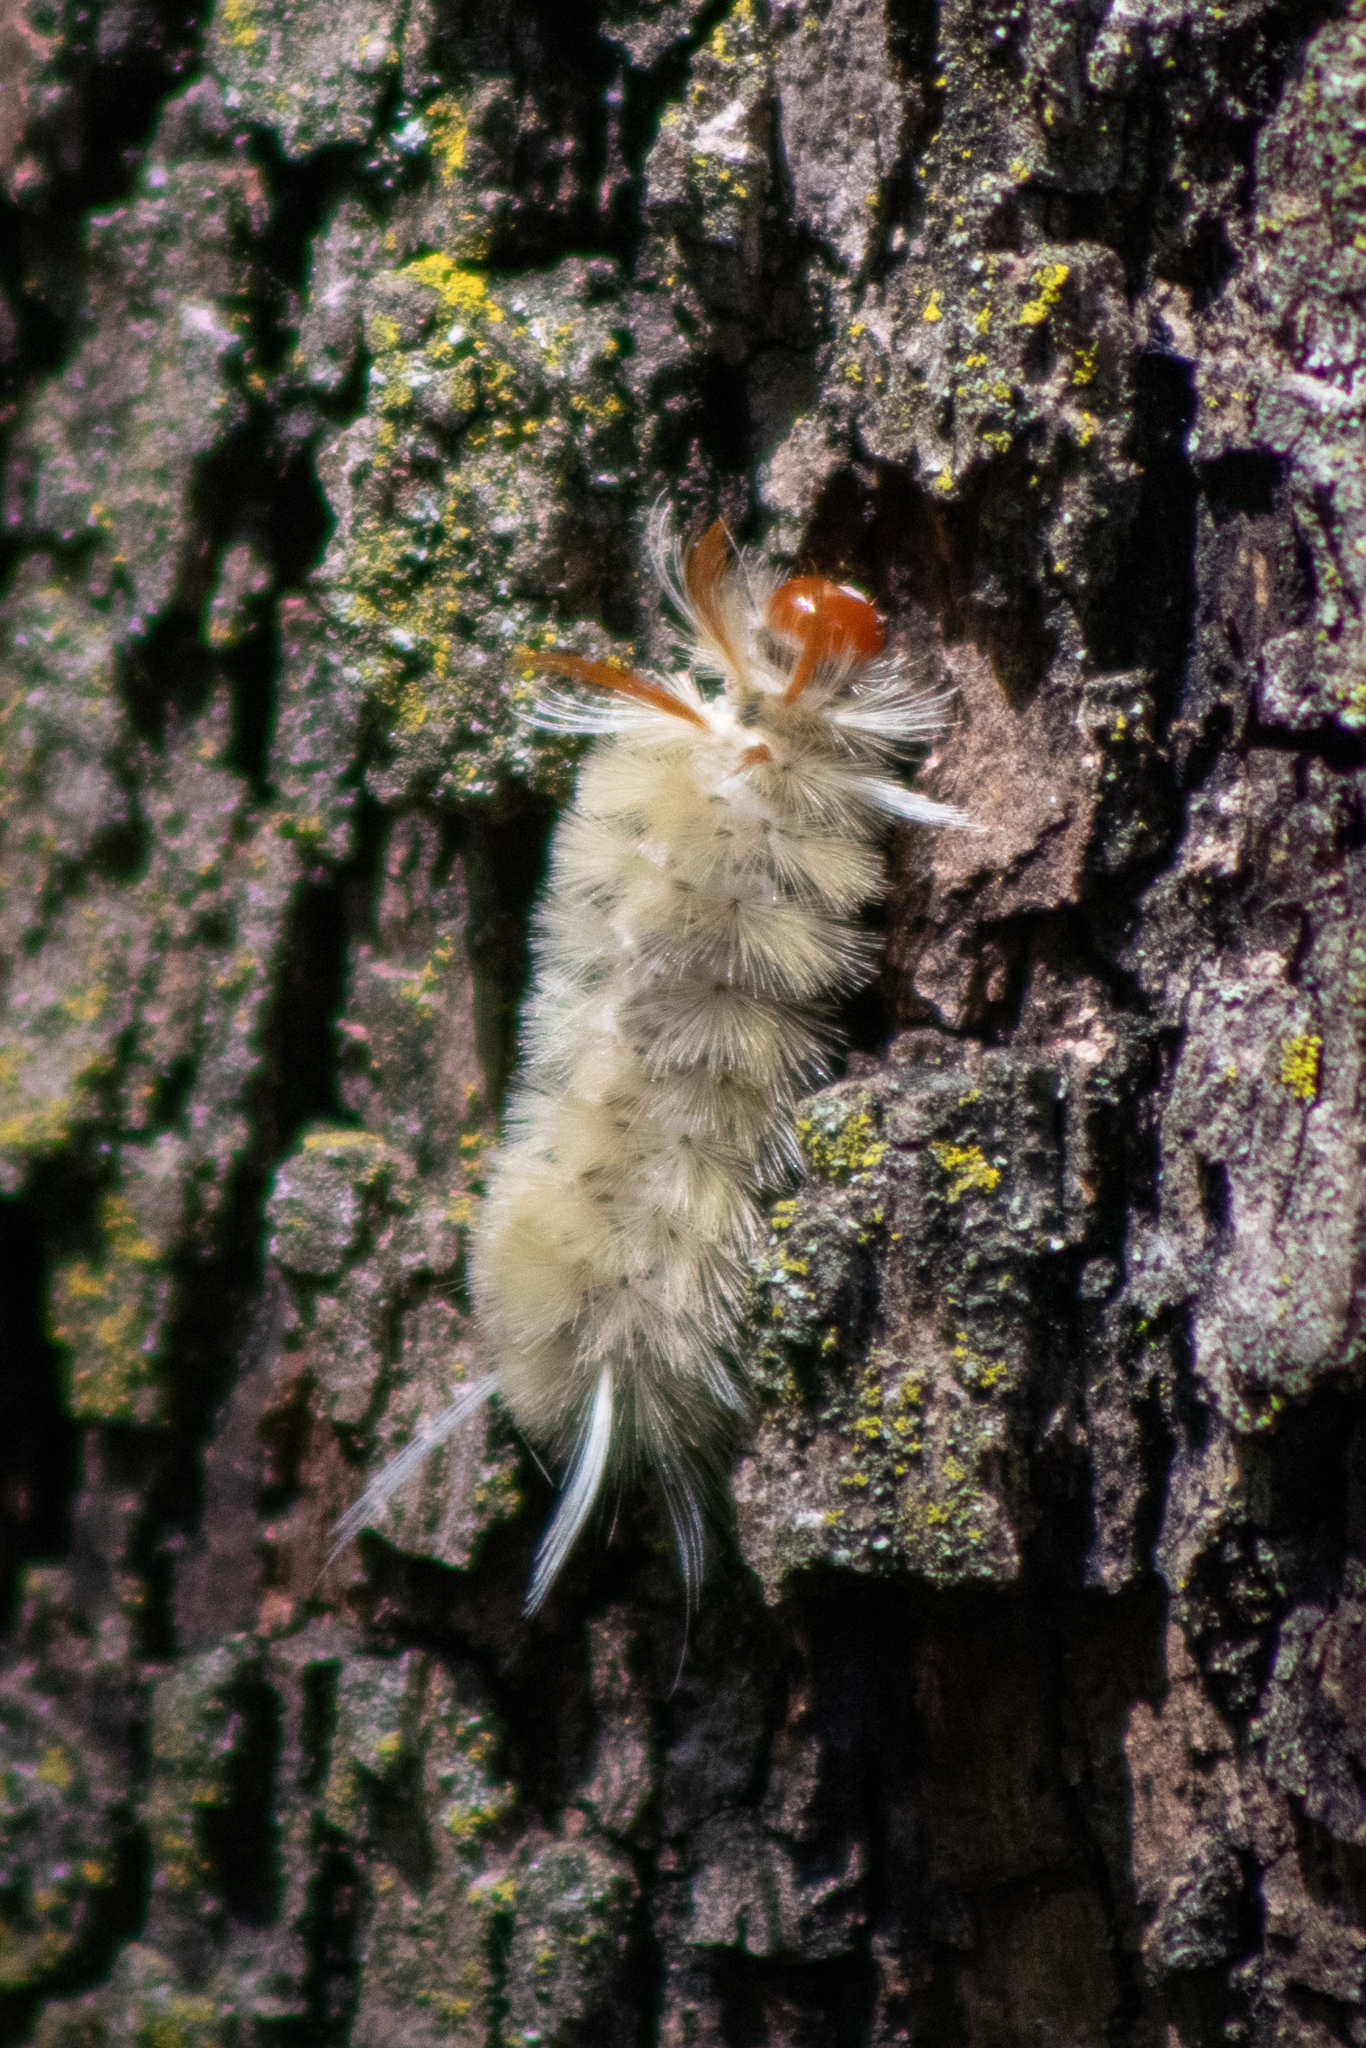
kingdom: Animalia
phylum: Arthropoda
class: Insecta
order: Lepidoptera
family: Erebidae
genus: Halysidota
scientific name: Halysidota harrisii
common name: Sycamore tussock moth
